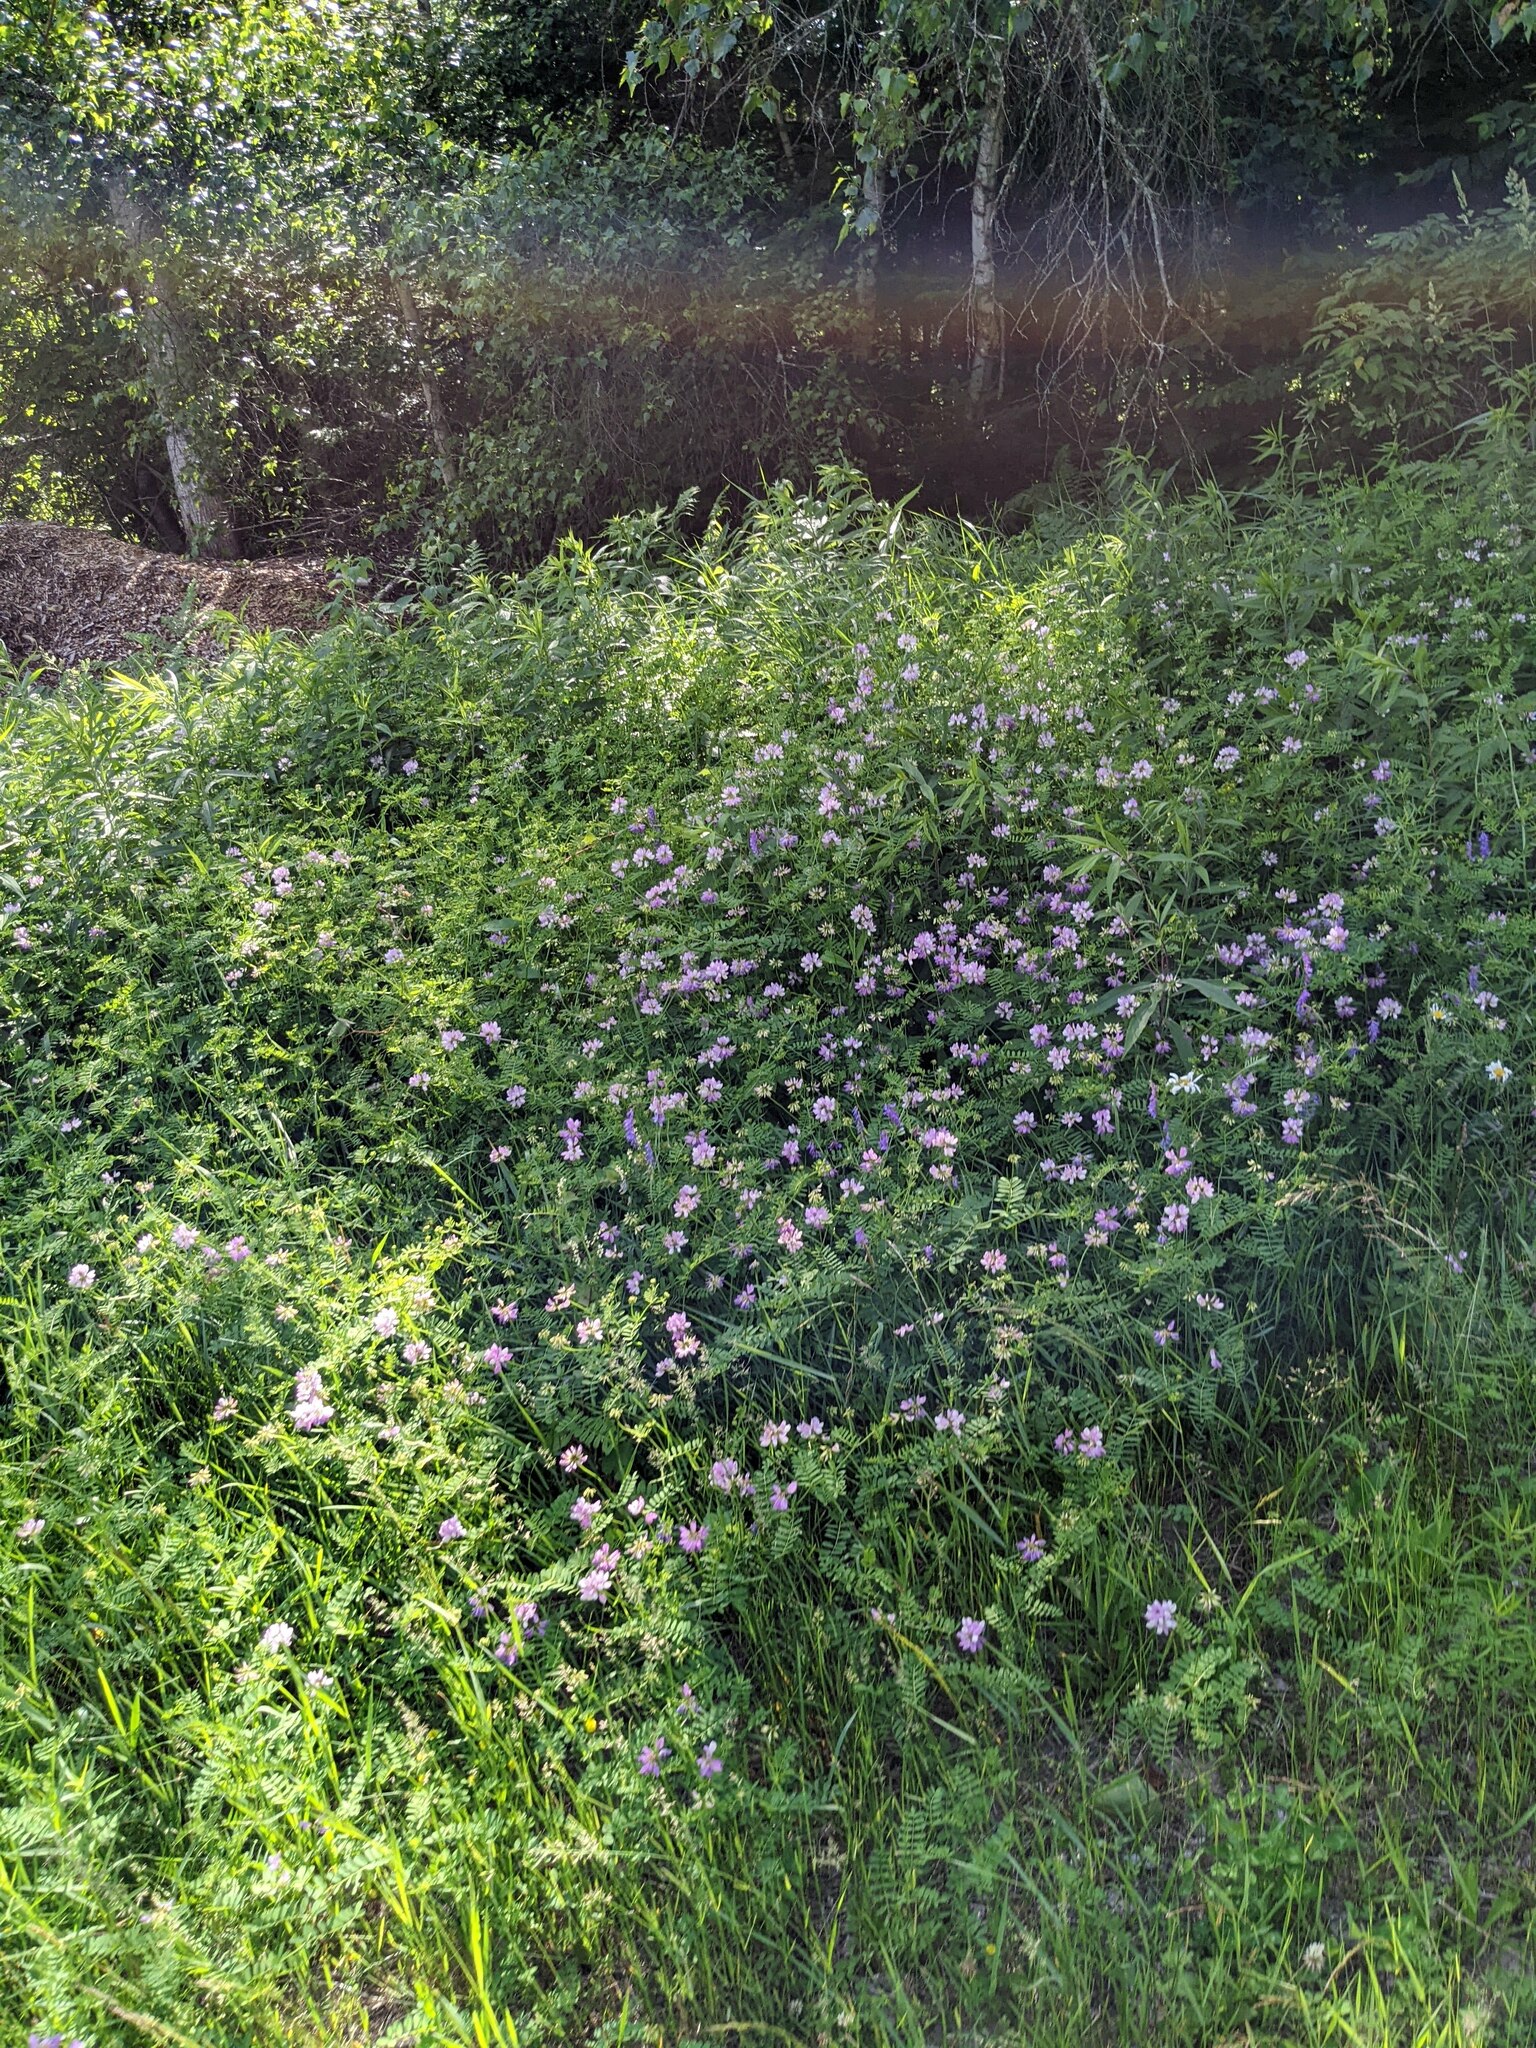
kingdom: Plantae
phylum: Tracheophyta
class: Magnoliopsida
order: Fabales
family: Fabaceae
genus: Coronilla
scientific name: Coronilla varia
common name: Crownvetch
